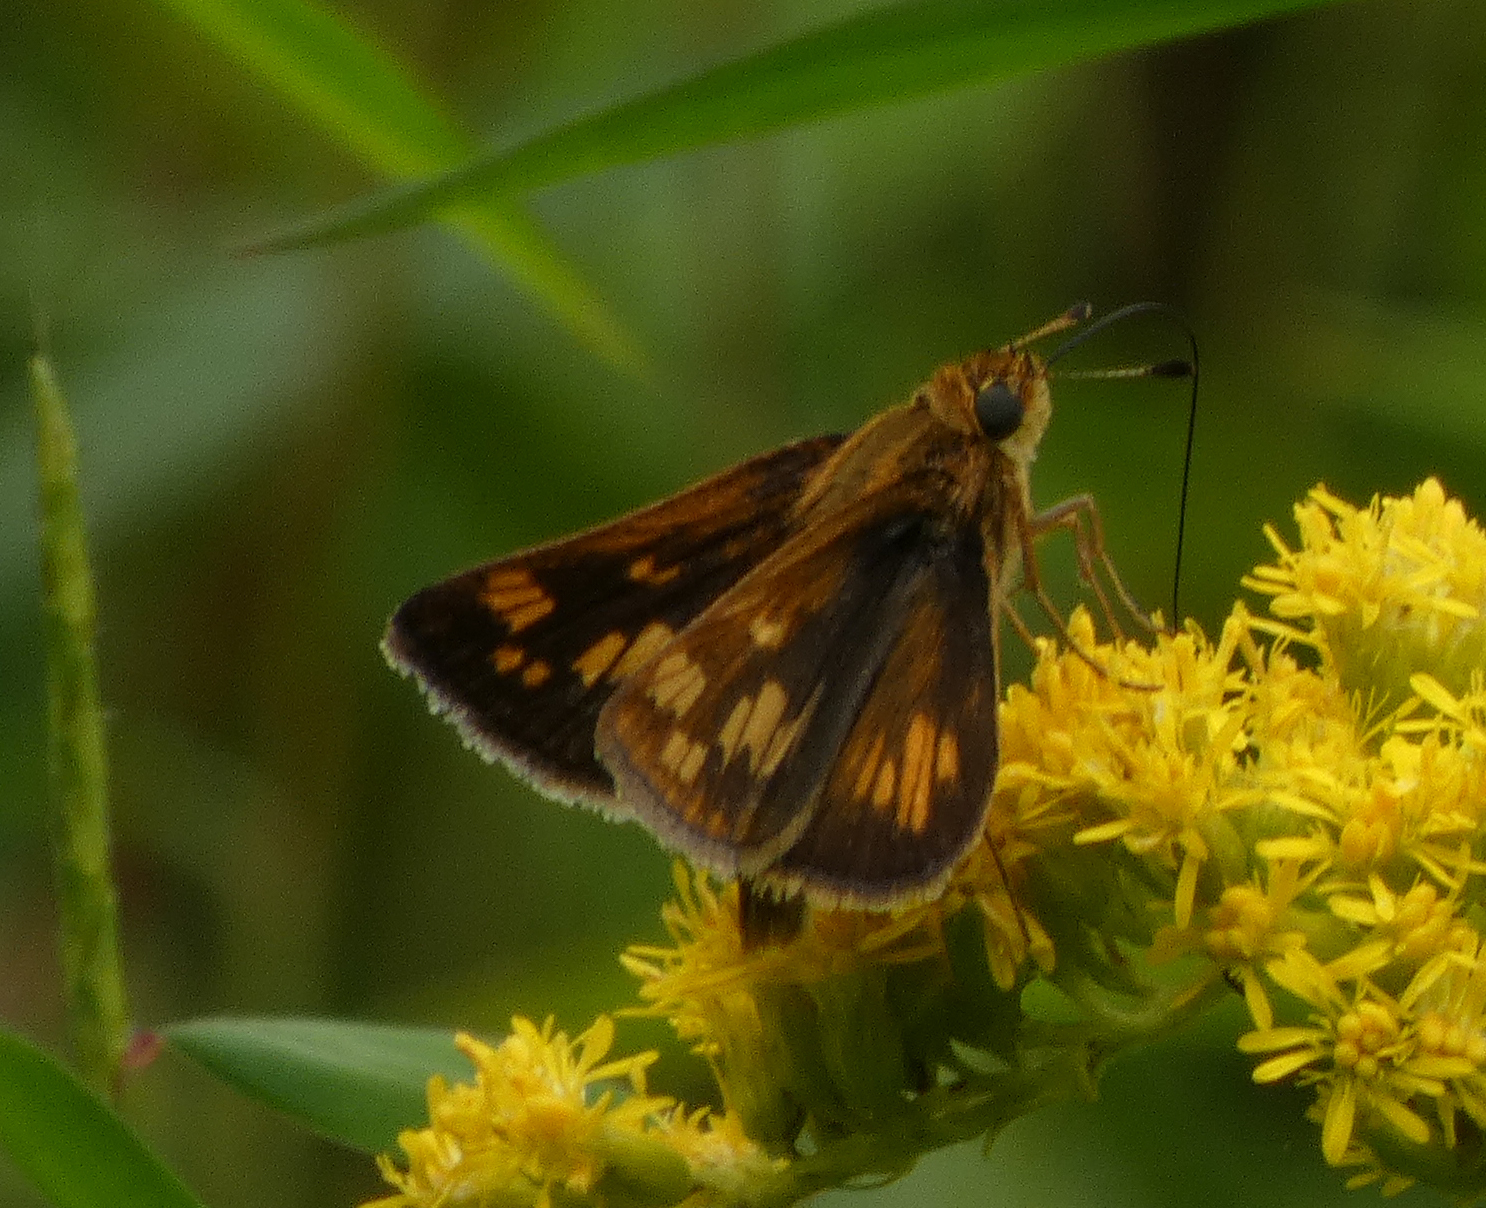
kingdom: Animalia
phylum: Arthropoda
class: Insecta
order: Lepidoptera
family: Hesperiidae
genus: Polites
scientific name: Polites coras
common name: Peck's skipper
